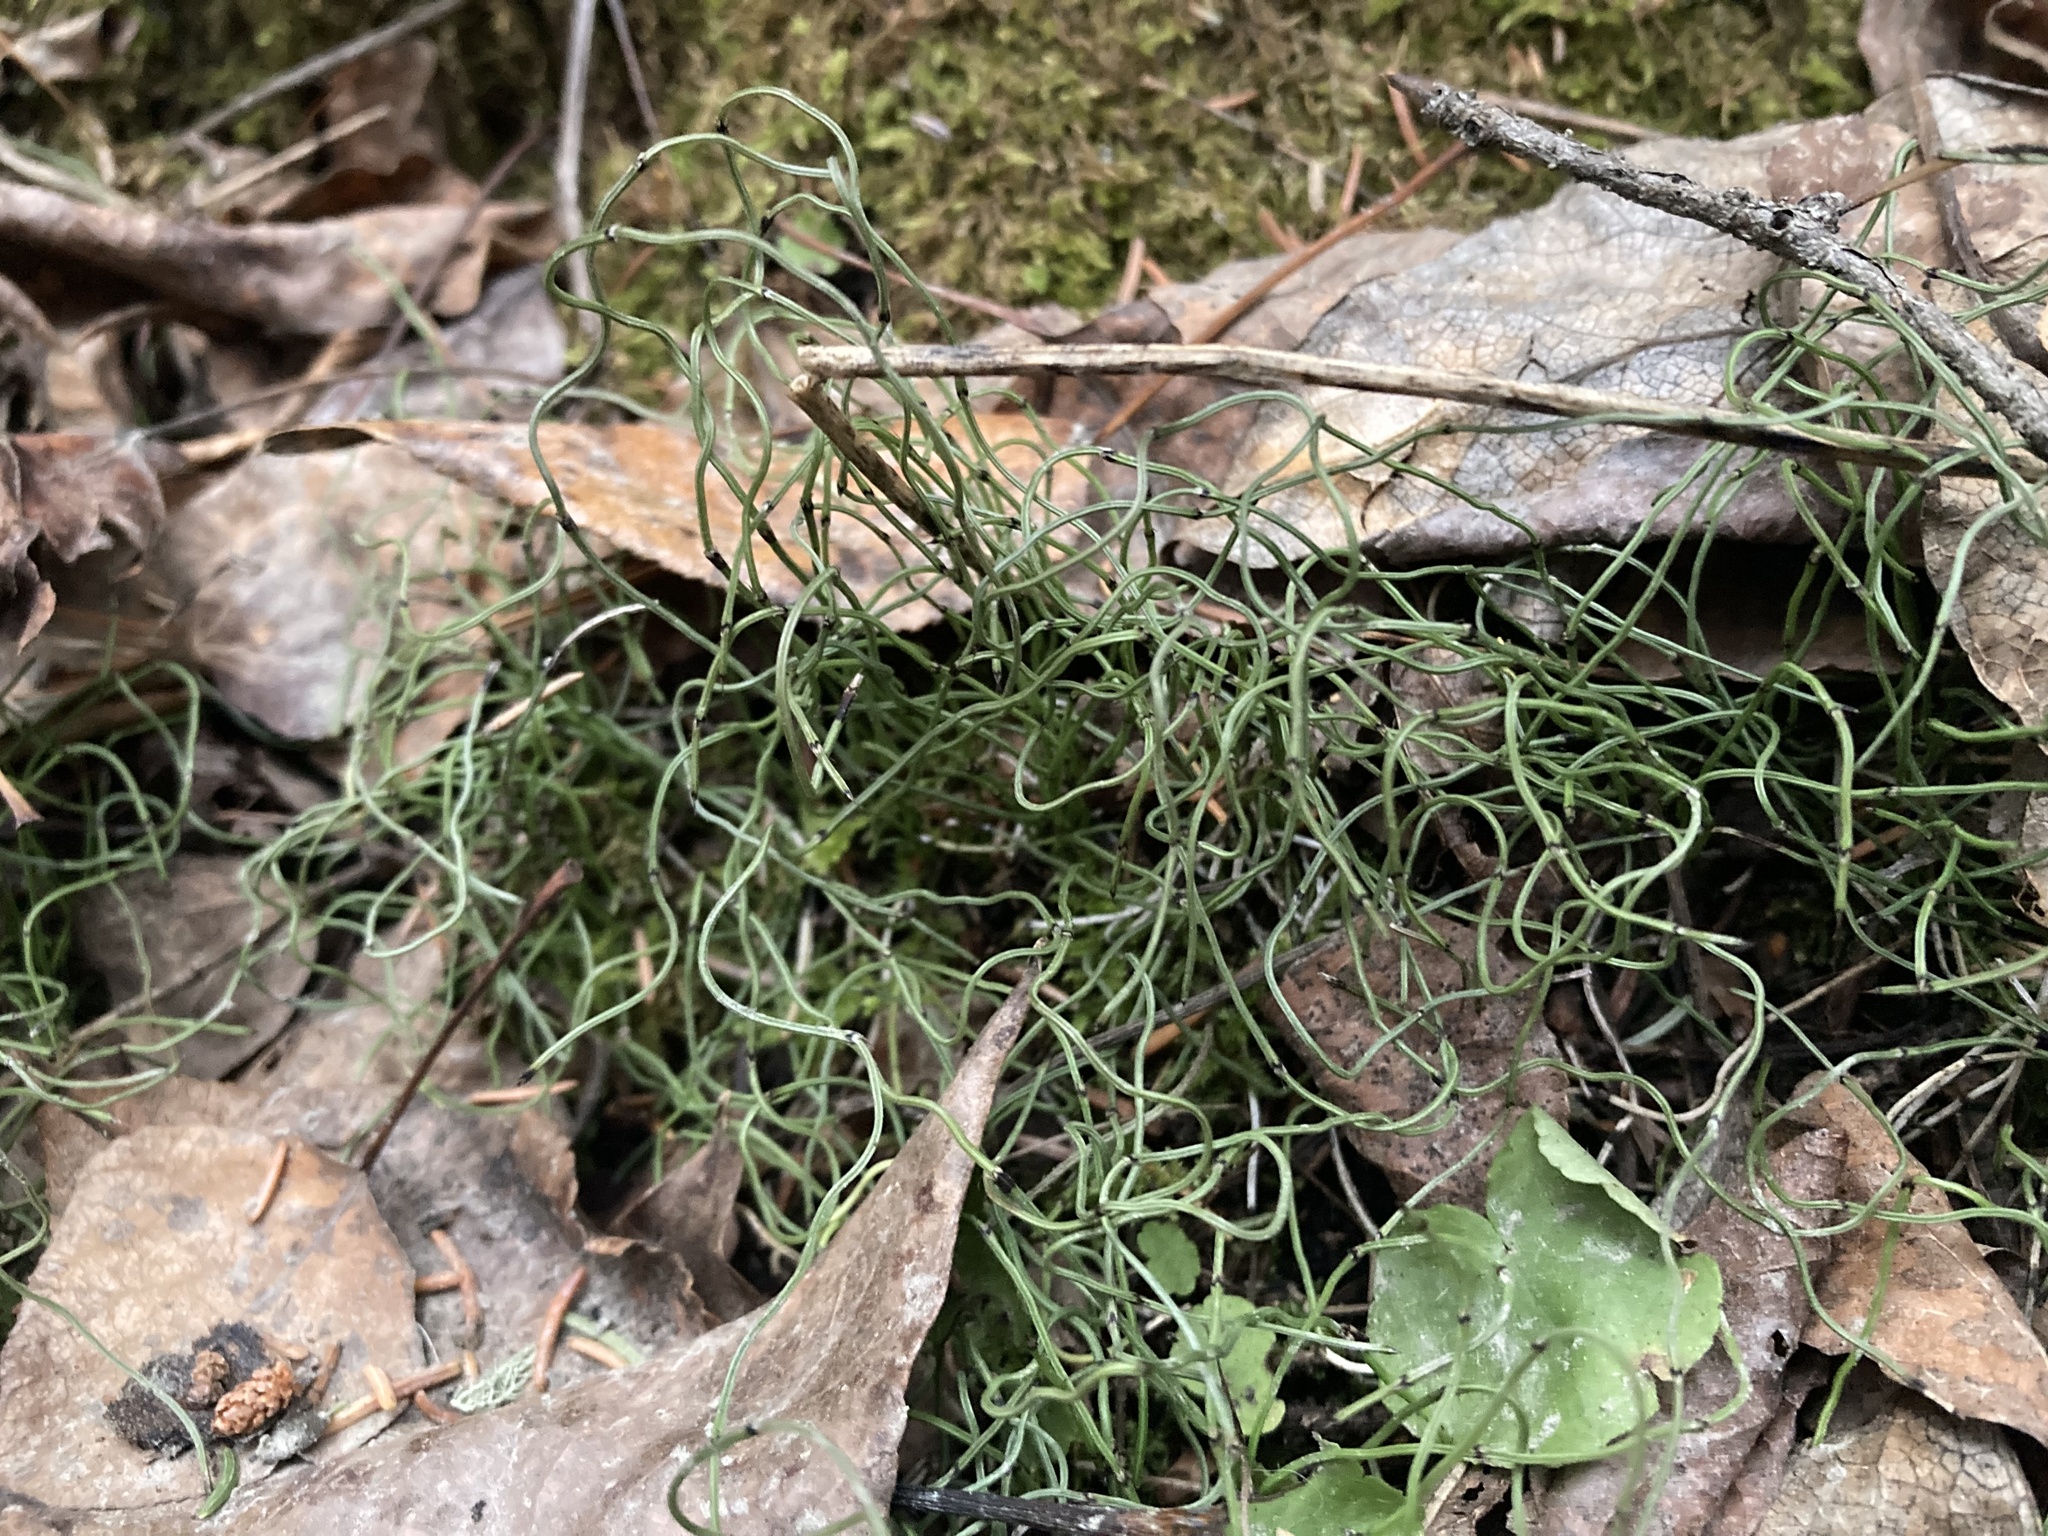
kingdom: Plantae
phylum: Tracheophyta
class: Polypodiopsida
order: Equisetales
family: Equisetaceae
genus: Equisetum
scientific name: Equisetum scirpoides
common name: Delicate horsetail
